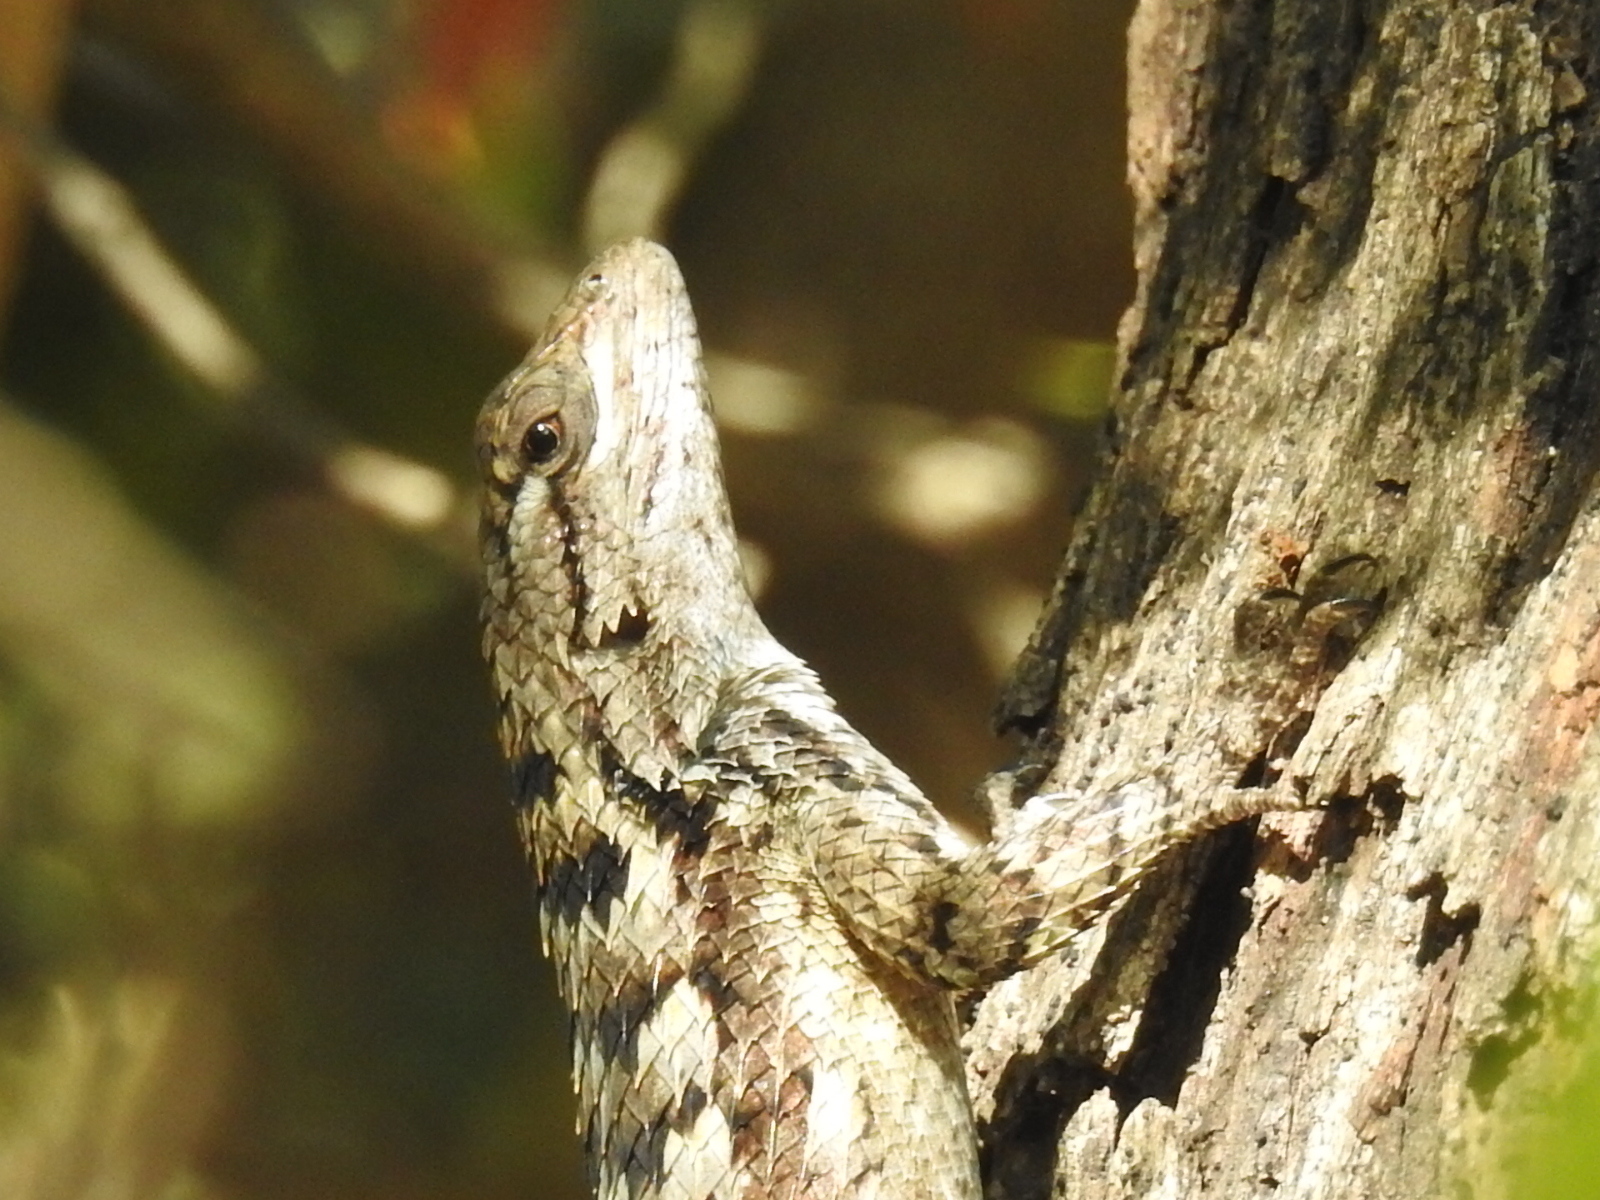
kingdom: Animalia
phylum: Chordata
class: Squamata
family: Phrynosomatidae
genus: Sceloporus
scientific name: Sceloporus olivaceus
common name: Texas spiny lizard
